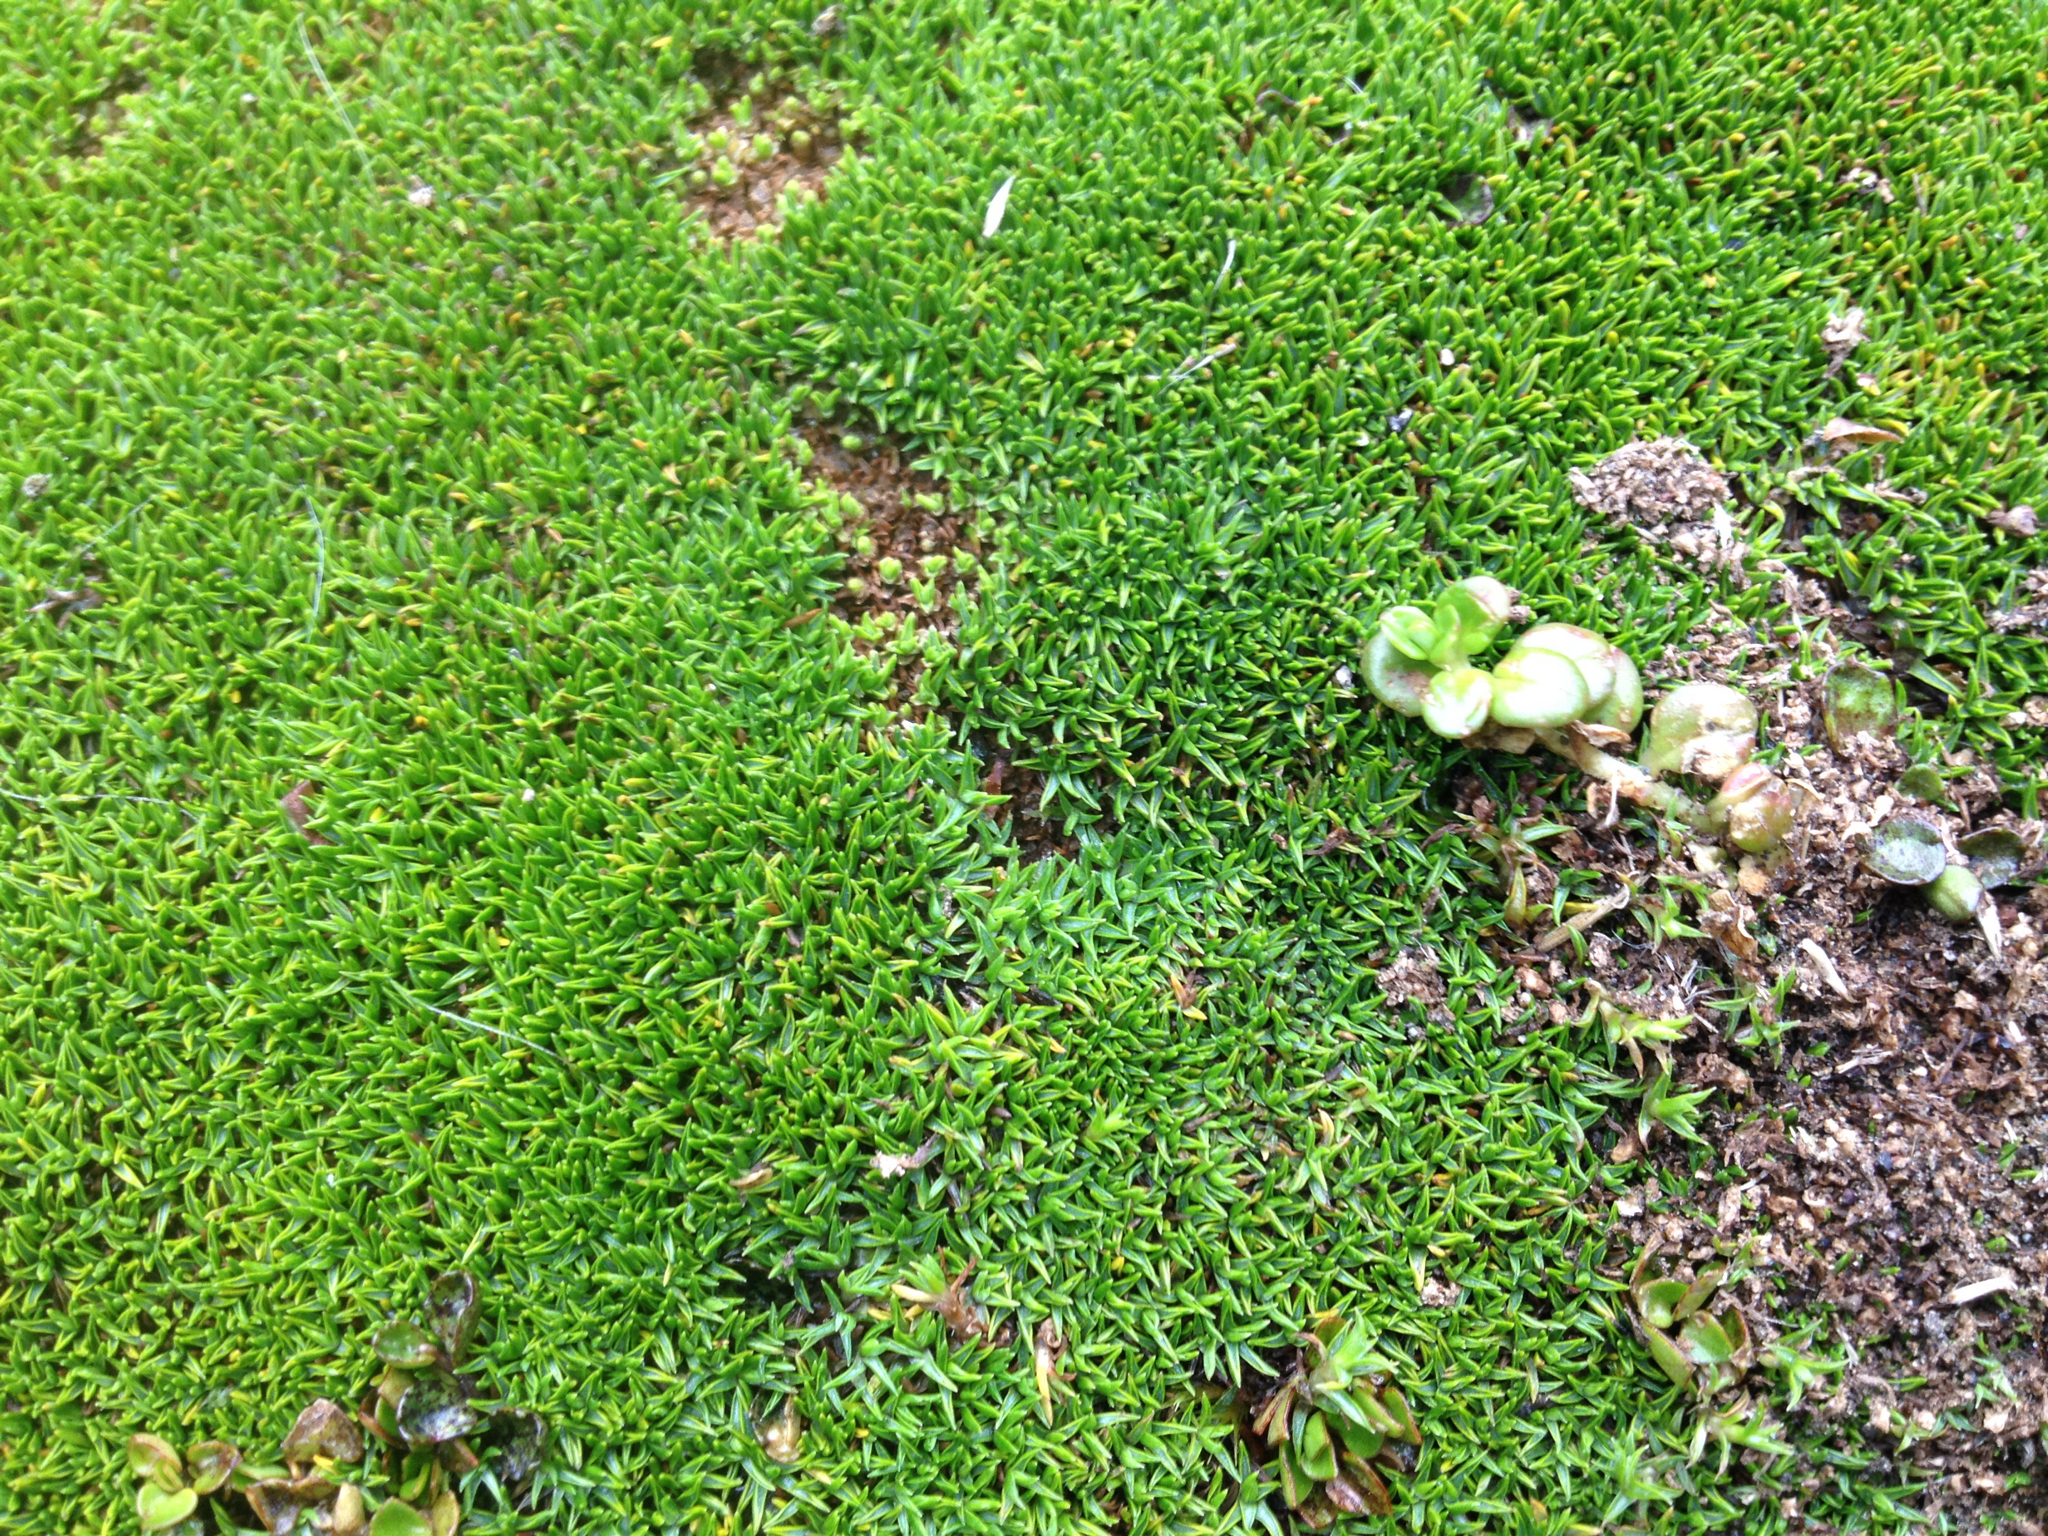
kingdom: Plantae
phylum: Tracheophyta
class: Magnoliopsida
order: Asterales
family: Asteraceae
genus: Raoulia
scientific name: Raoulia tenuicaulis
